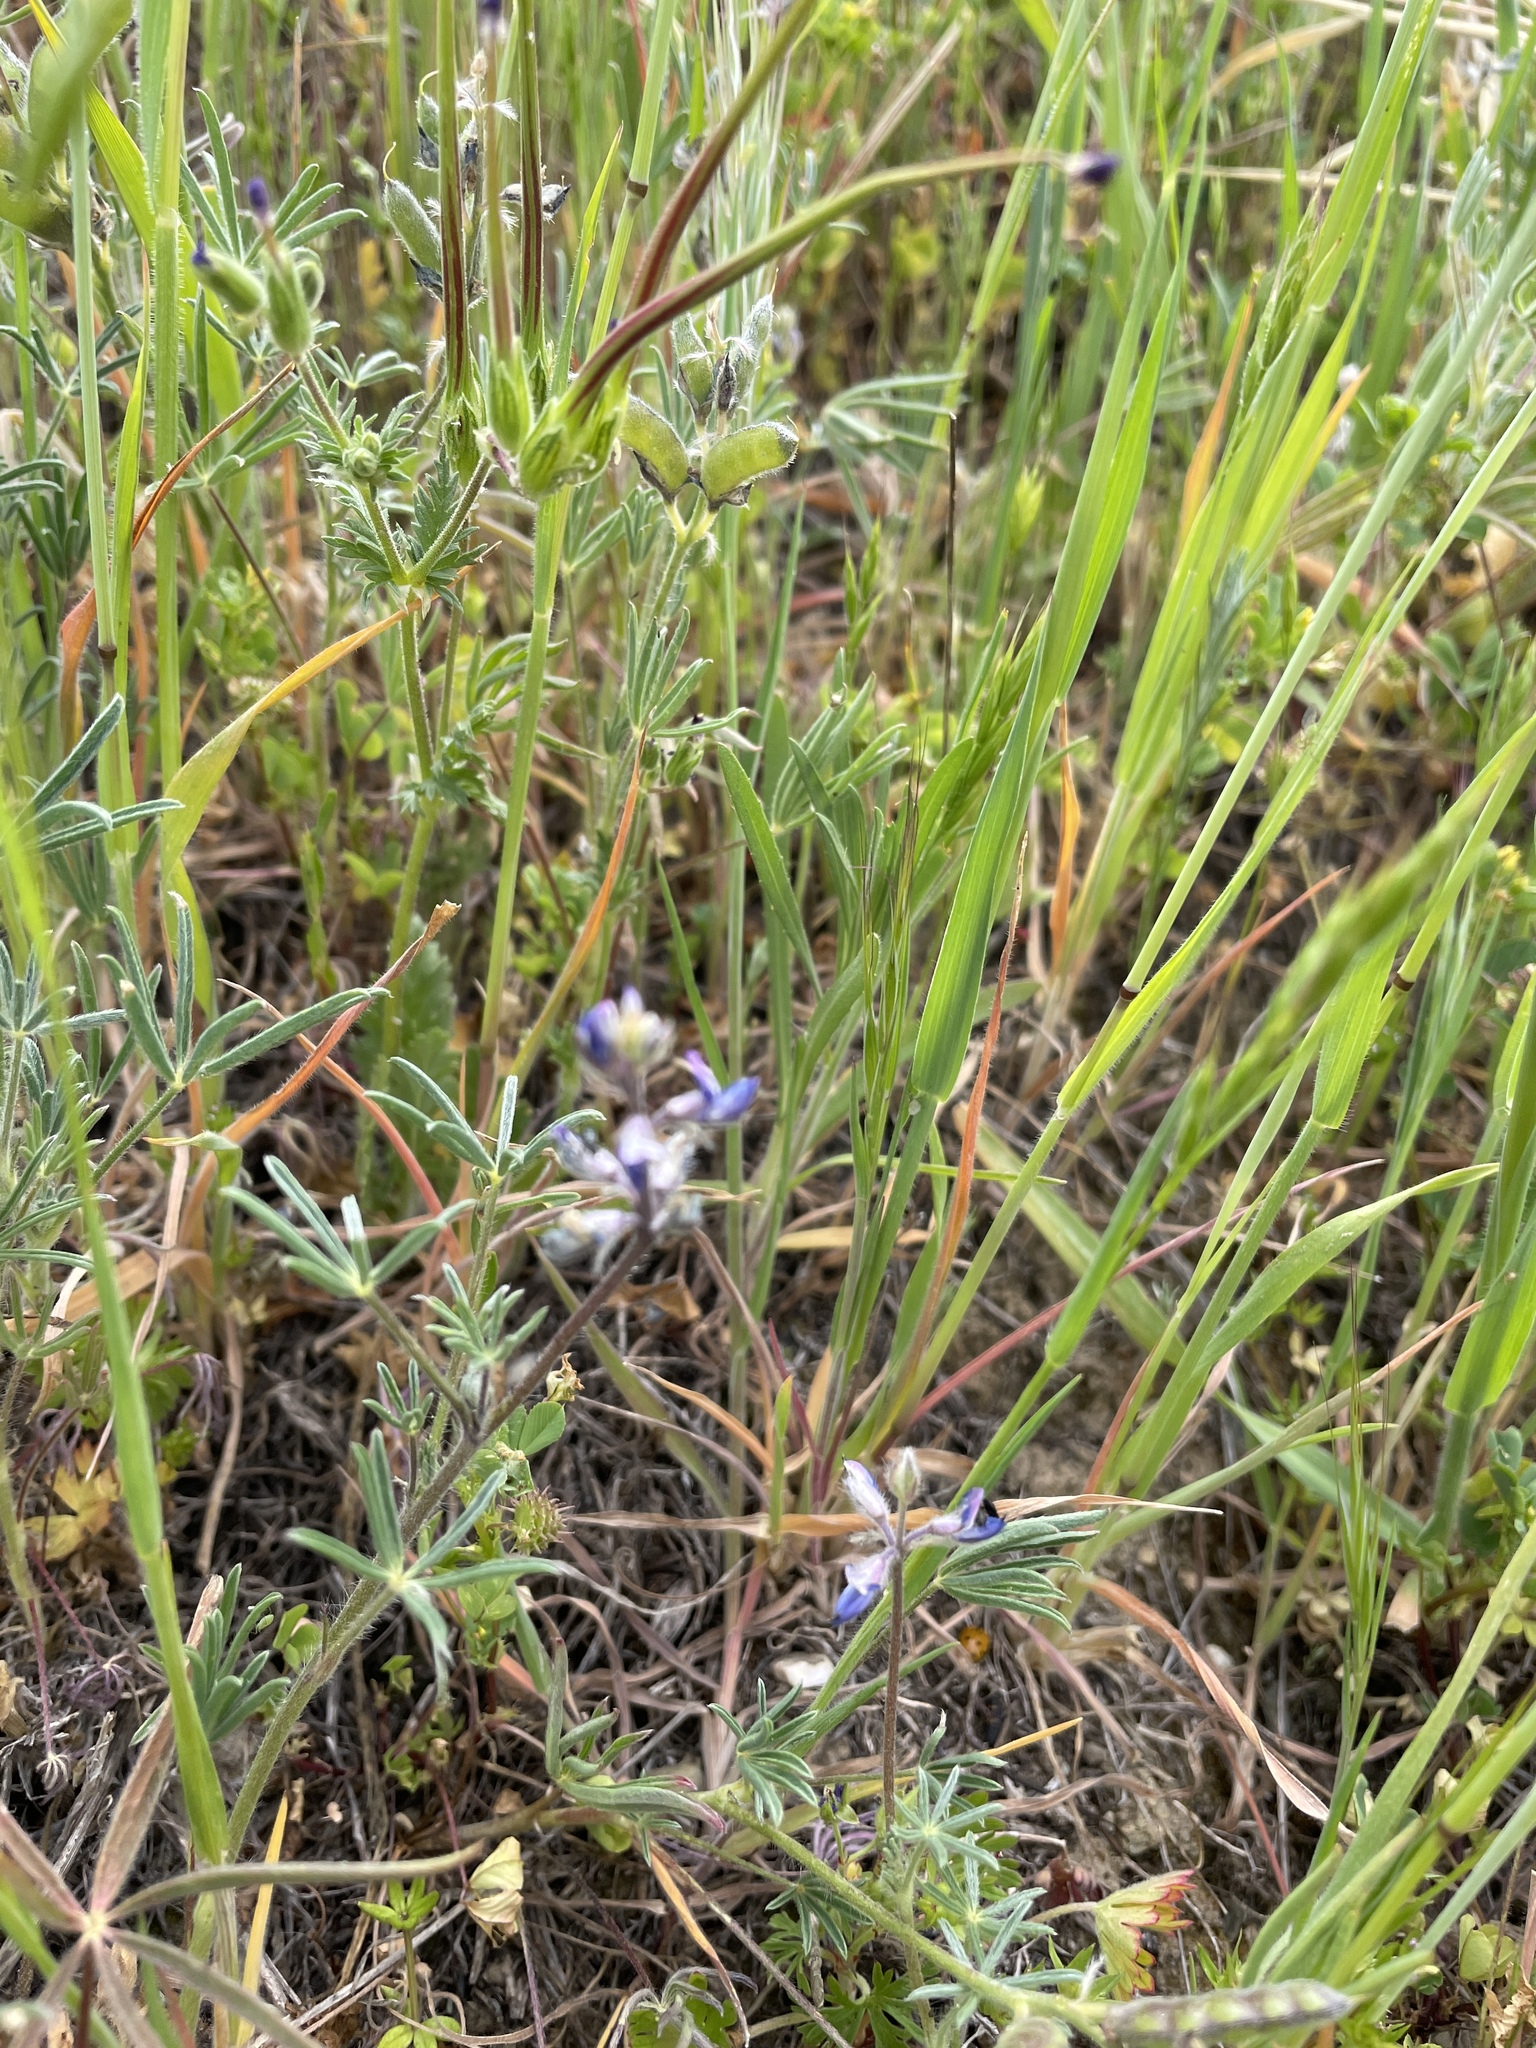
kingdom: Plantae
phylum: Tracheophyta
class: Magnoliopsida
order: Fabales
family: Fabaceae
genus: Lupinus
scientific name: Lupinus bicolor
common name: Miniature lupine
